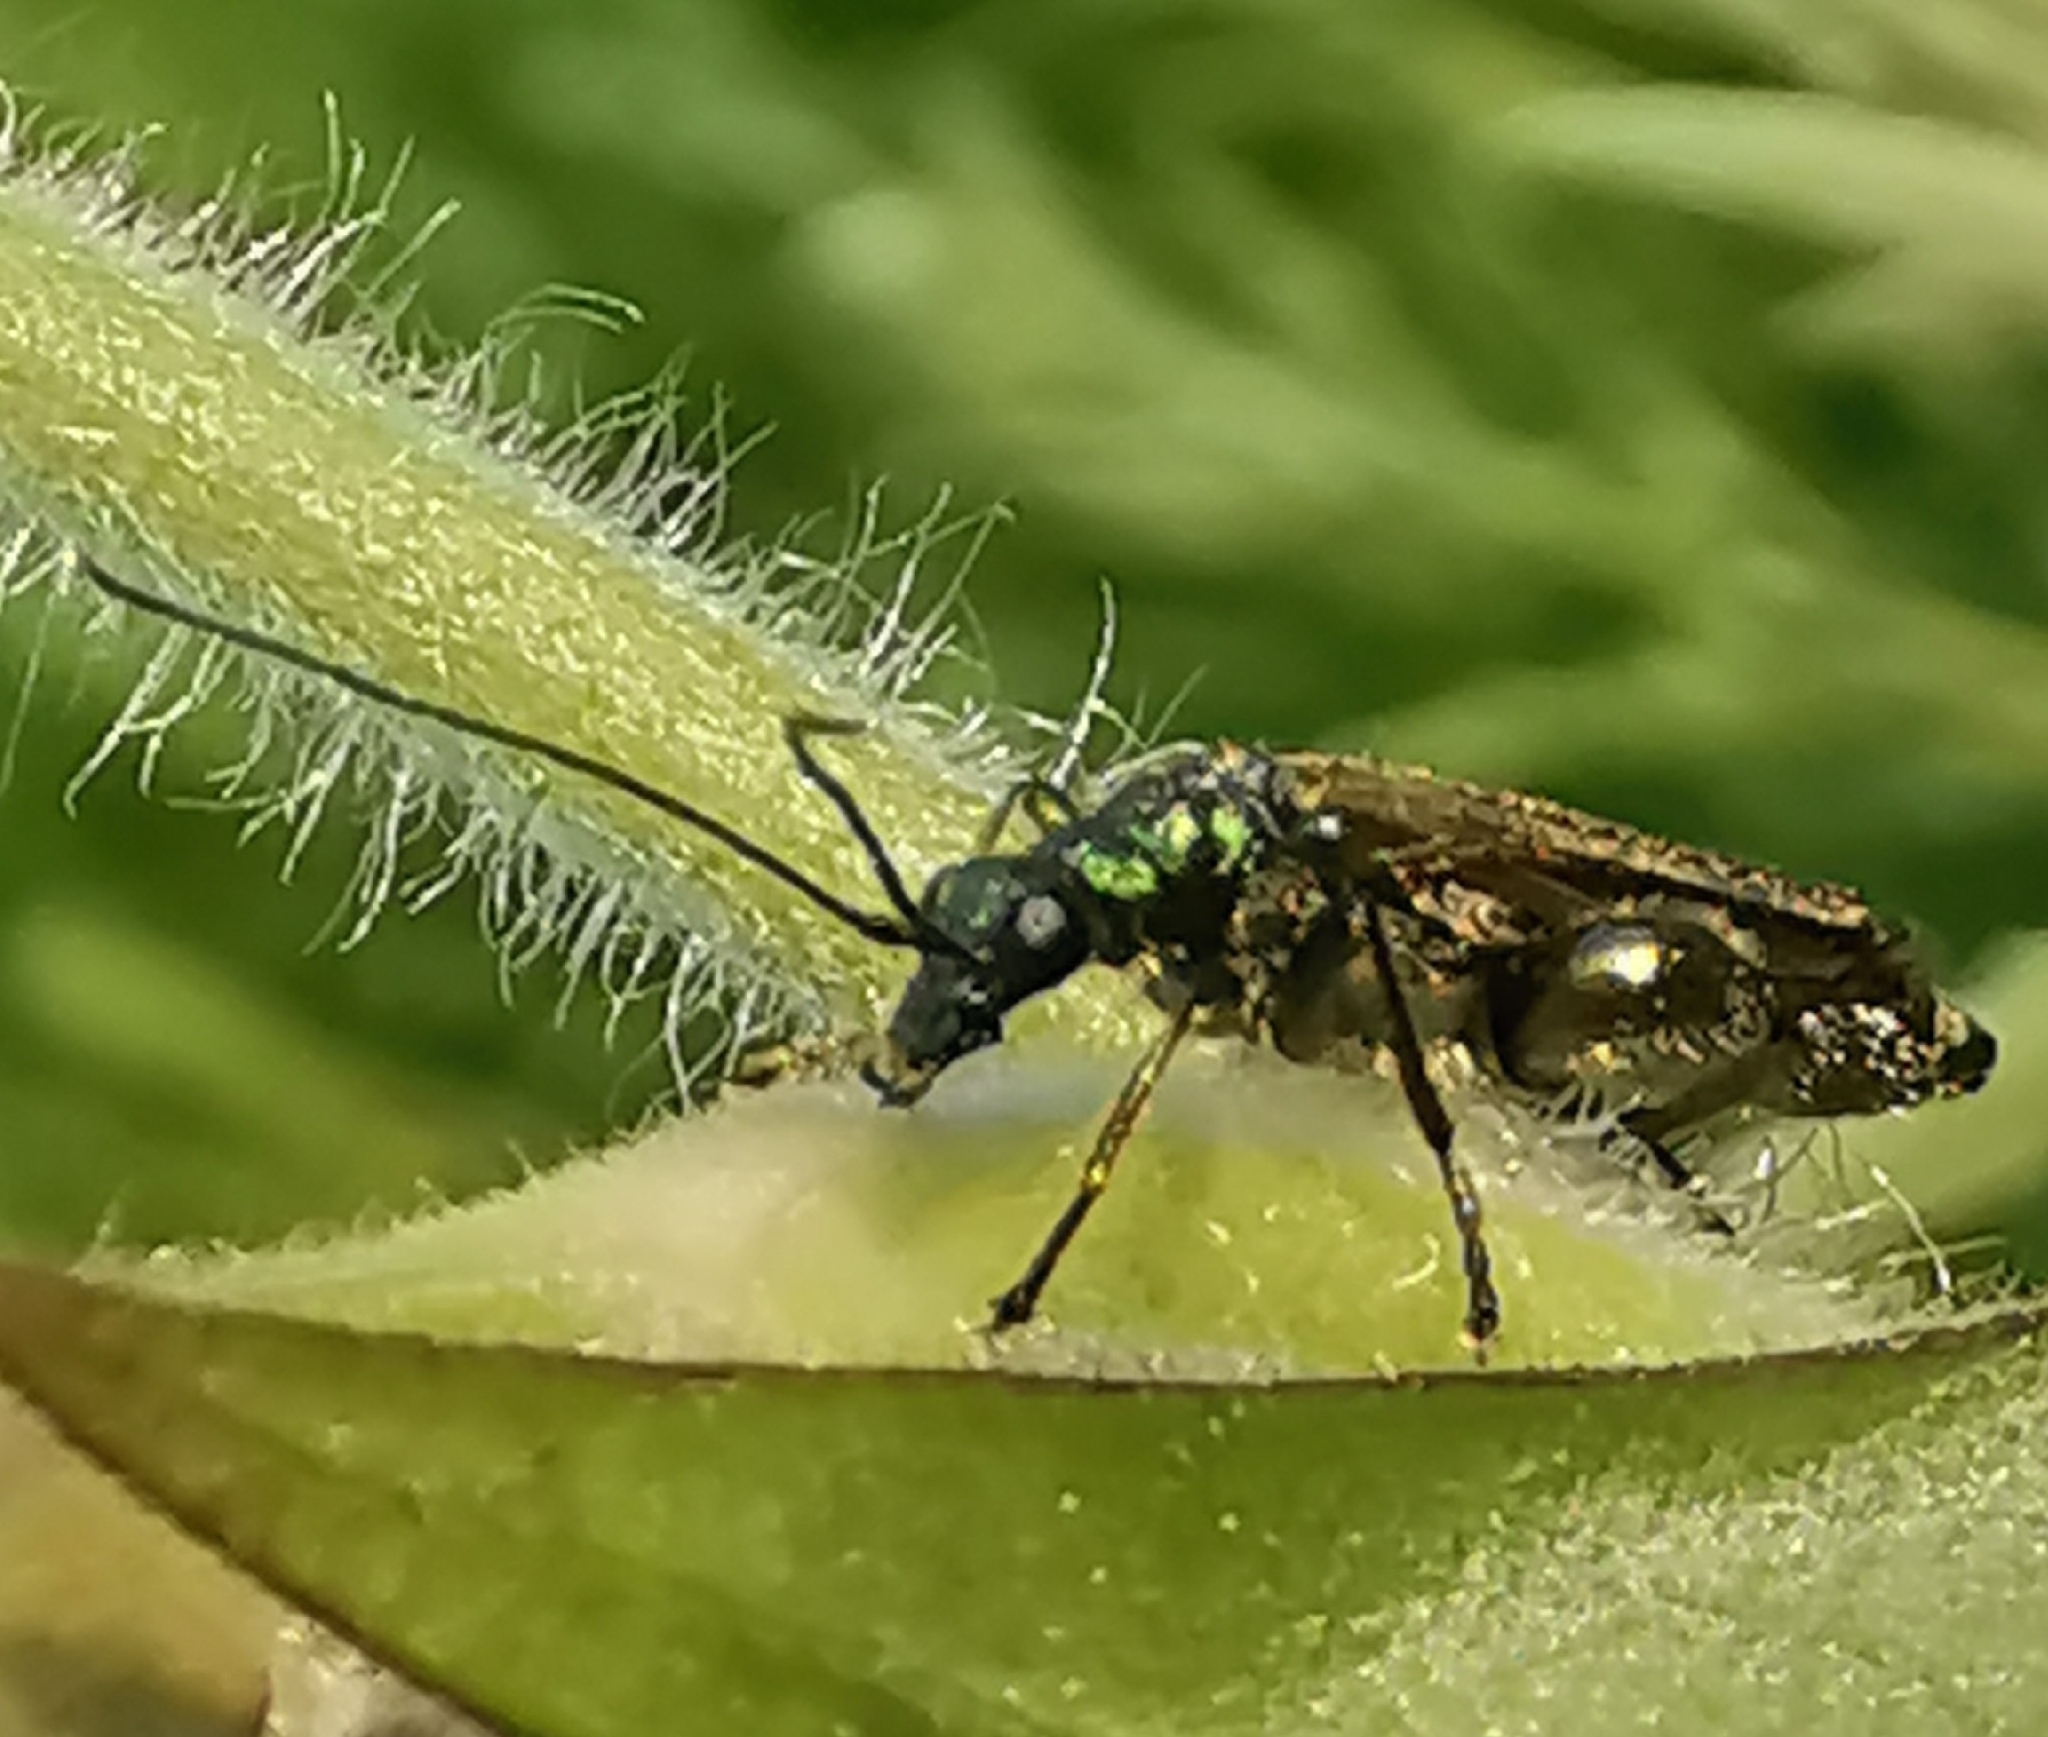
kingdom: Animalia
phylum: Arthropoda
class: Insecta
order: Coleoptera
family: Oedemeridae
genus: Oedemera
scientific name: Oedemera nobilis
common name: Swollen-thighed beetle
